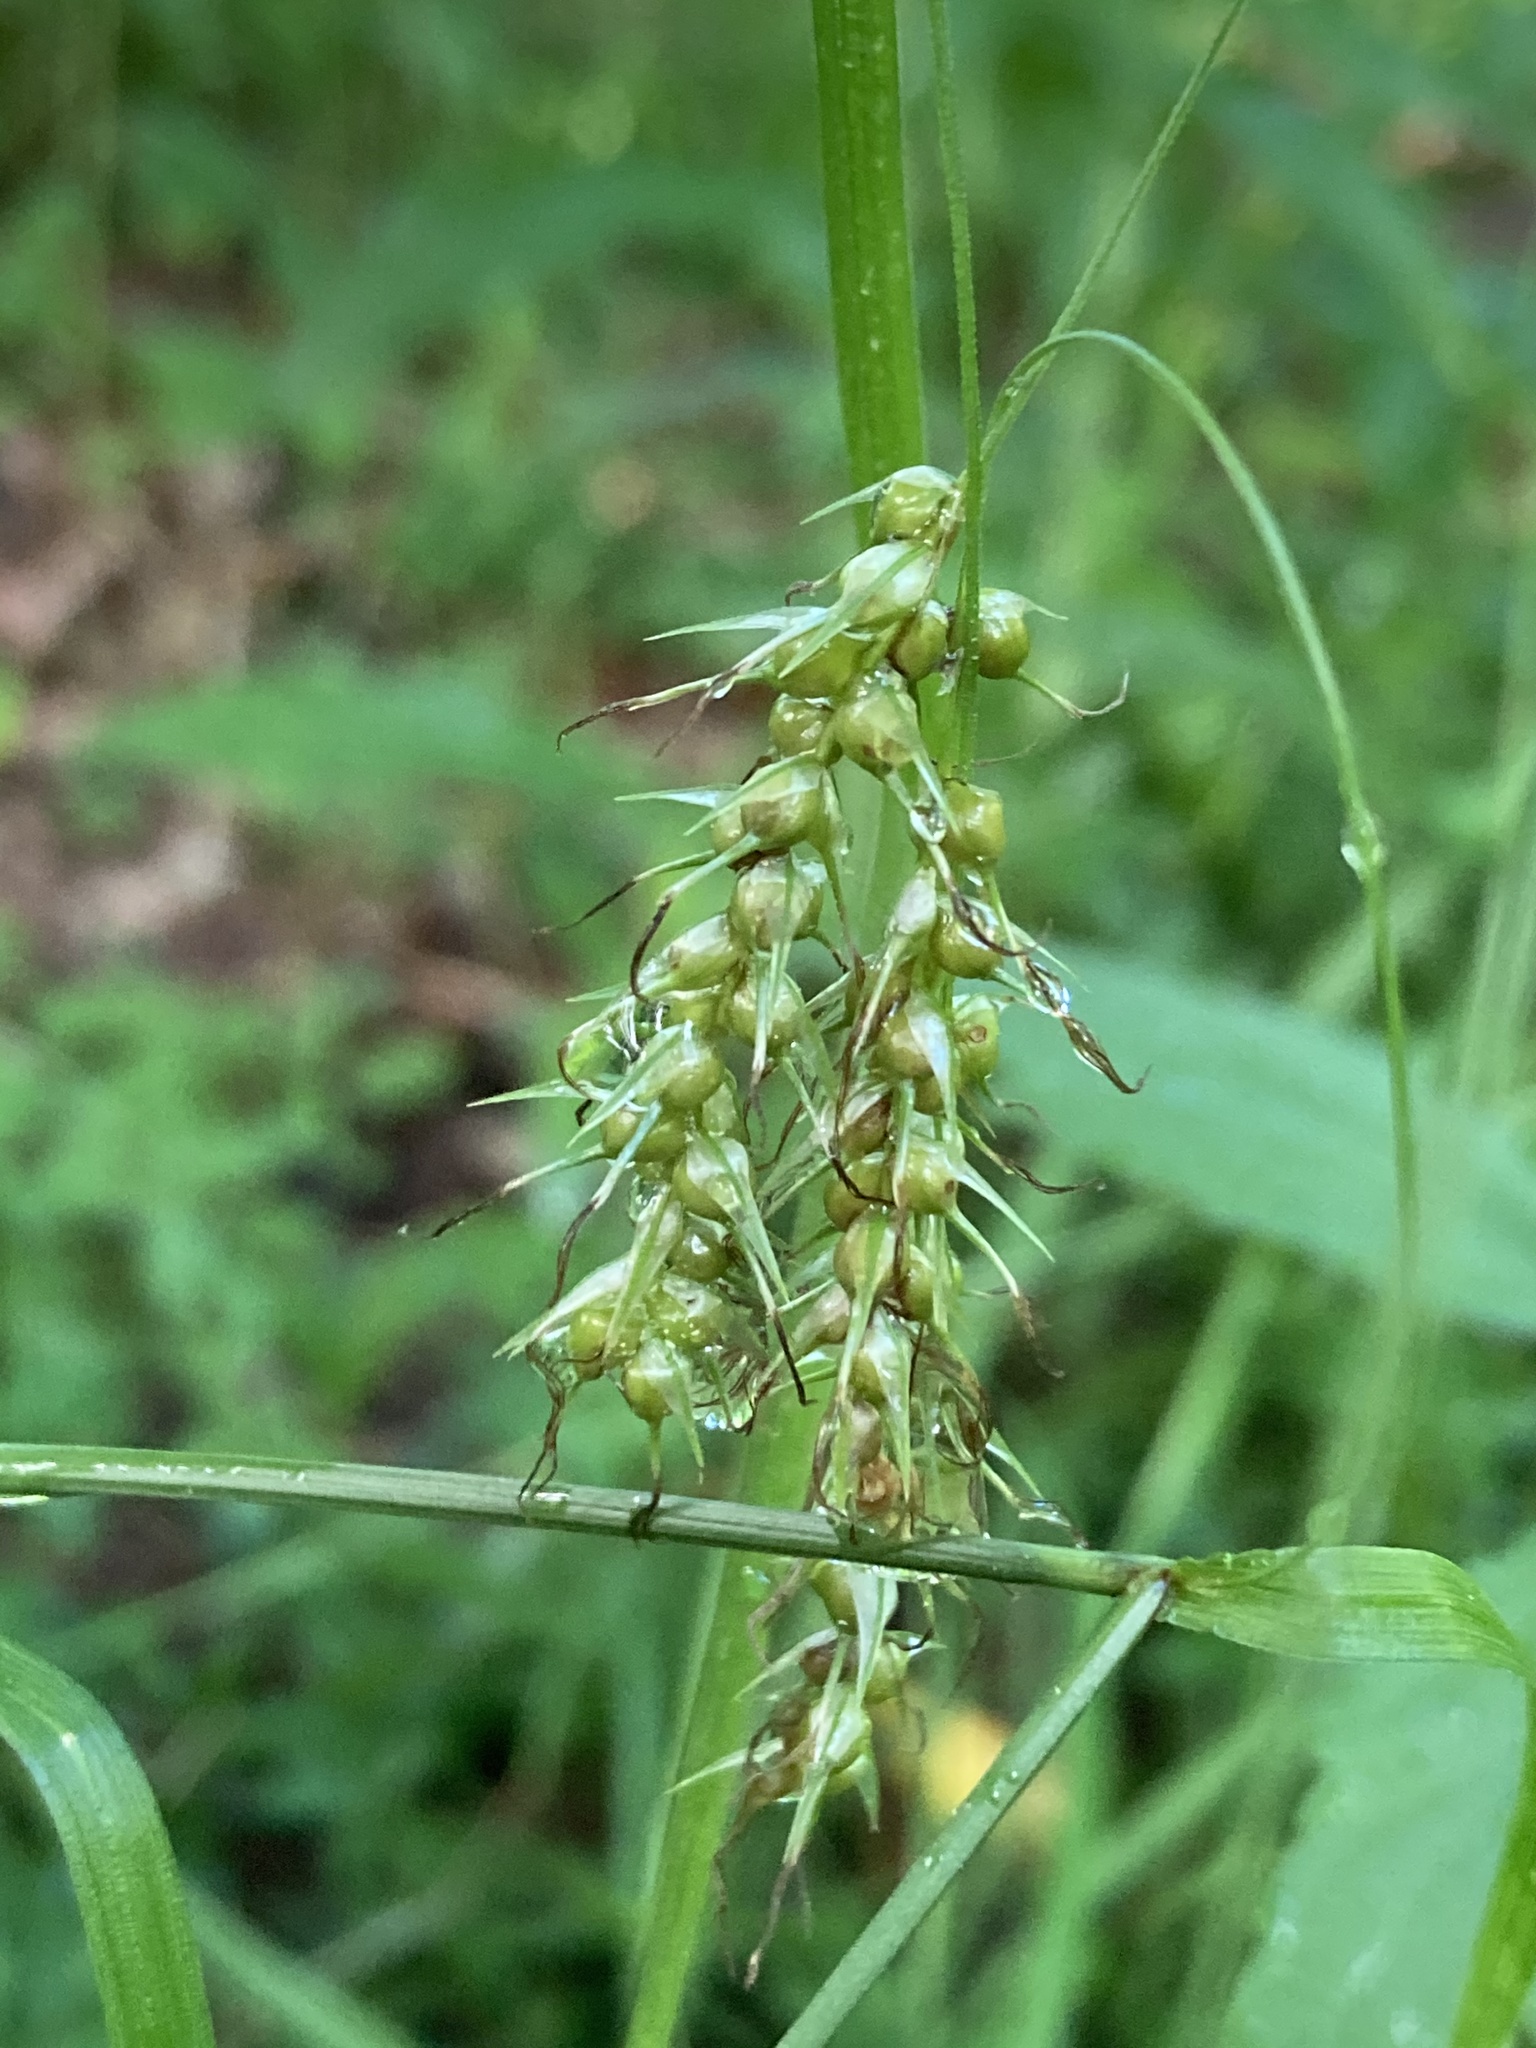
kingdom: Plantae
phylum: Tracheophyta
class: Liliopsida
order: Poales
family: Cyperaceae
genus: Carex
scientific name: Carex sprengelii
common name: Long-beaked sedge
